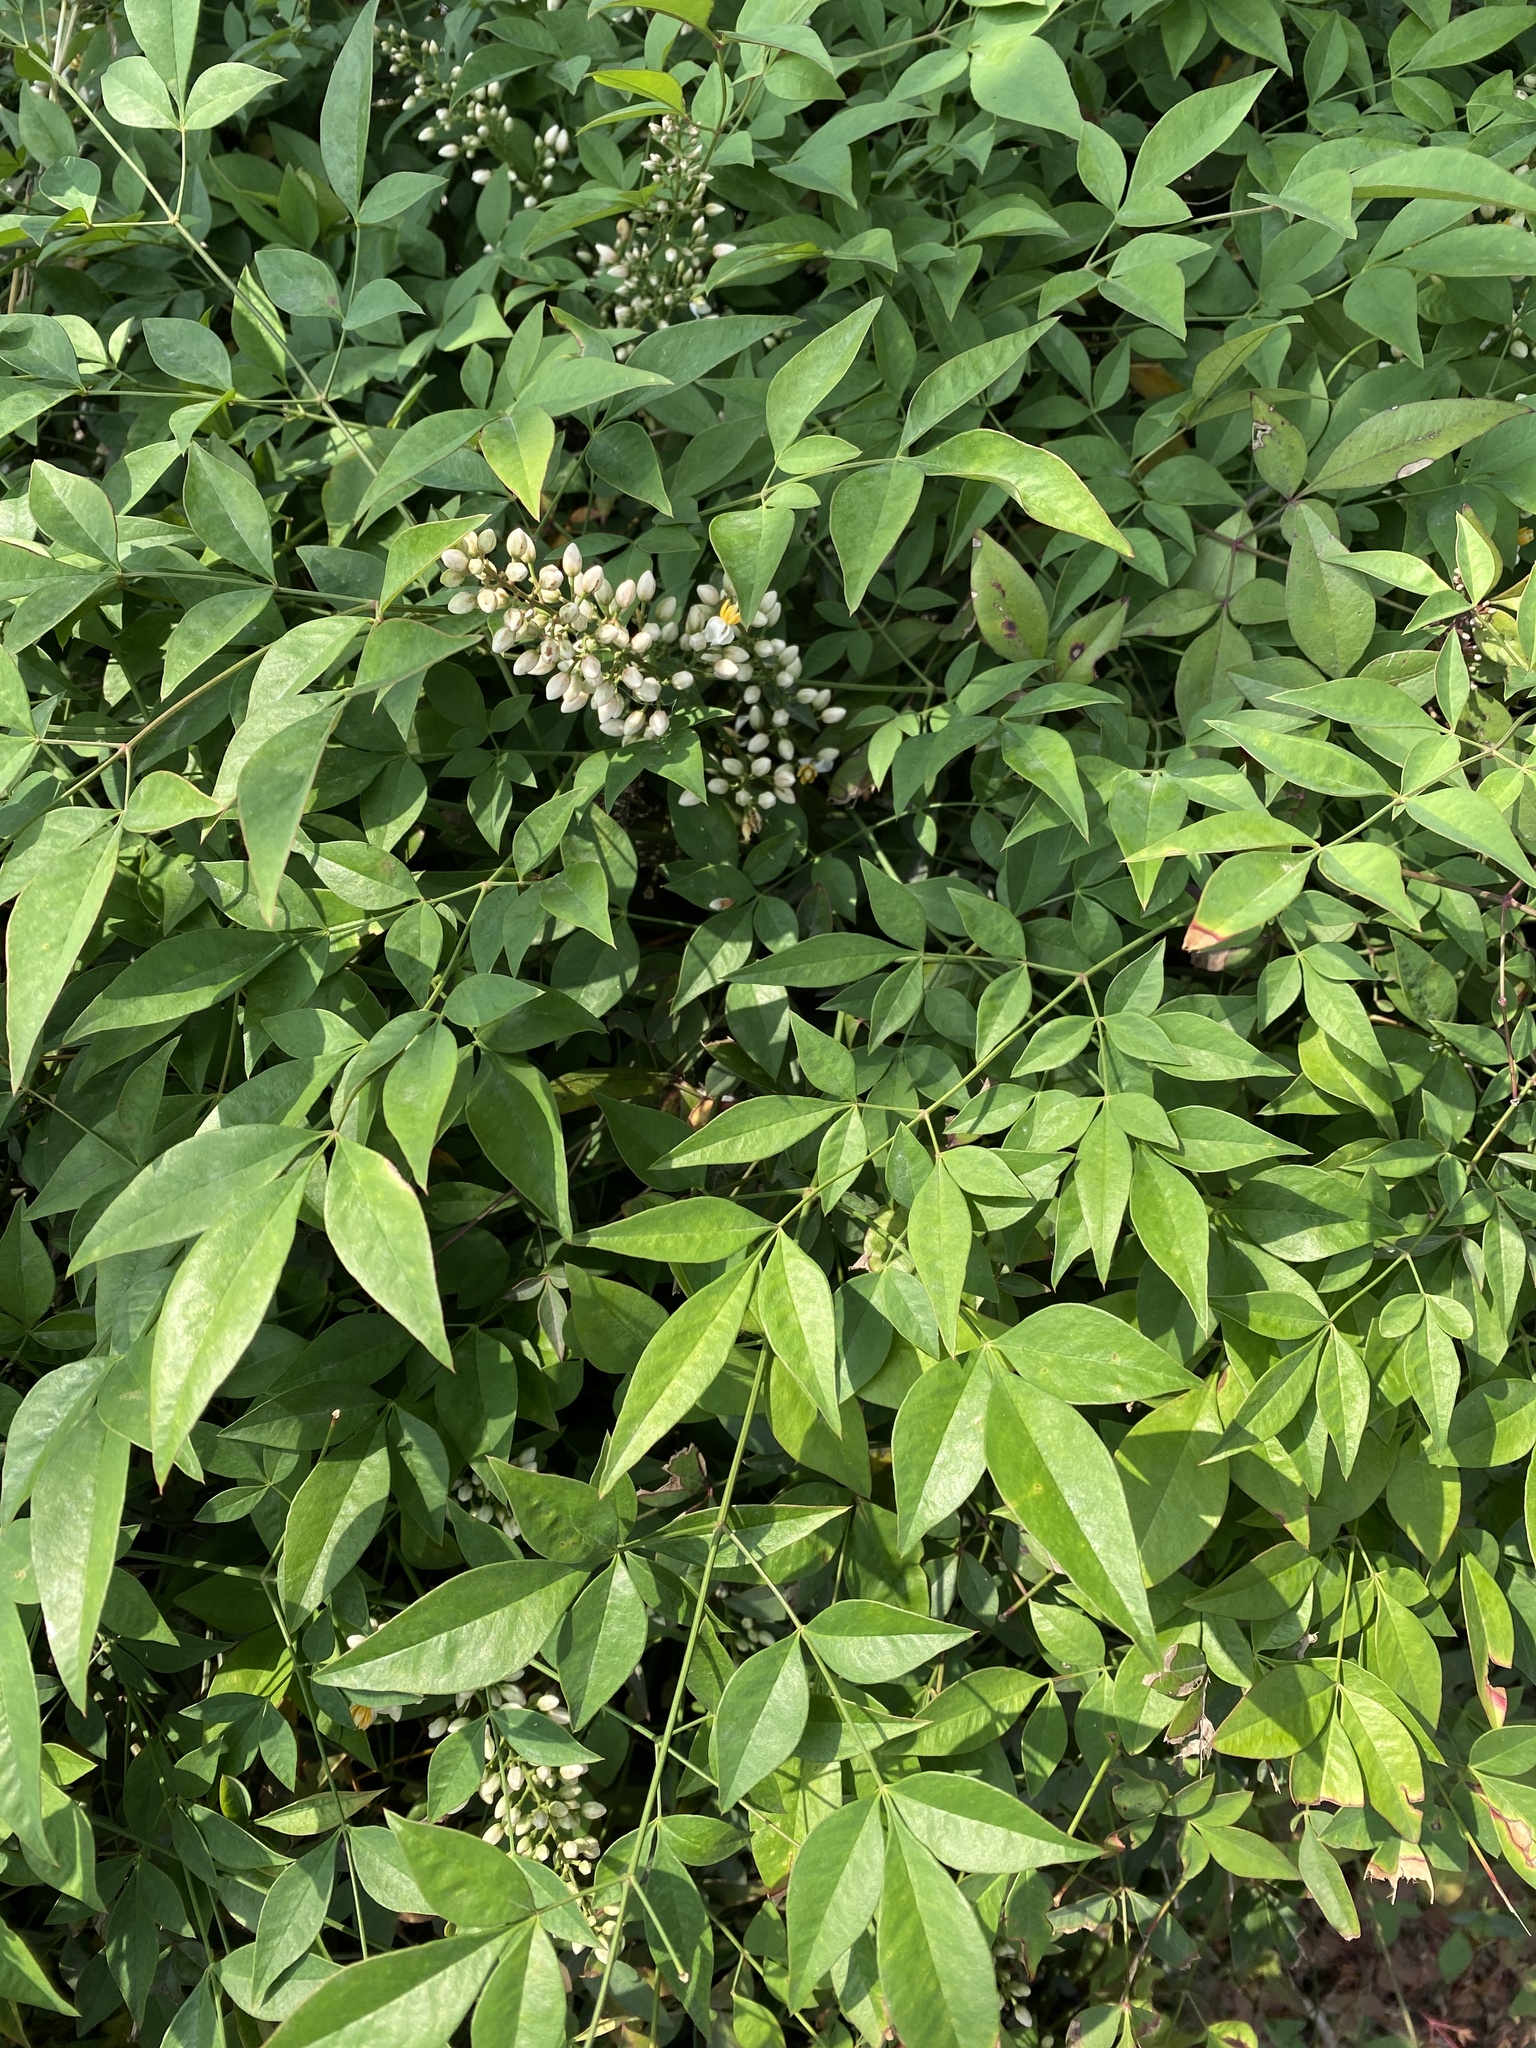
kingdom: Plantae
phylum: Tracheophyta
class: Magnoliopsida
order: Ranunculales
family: Berberidaceae
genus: Nandina
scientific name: Nandina domestica
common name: Sacred bamboo
